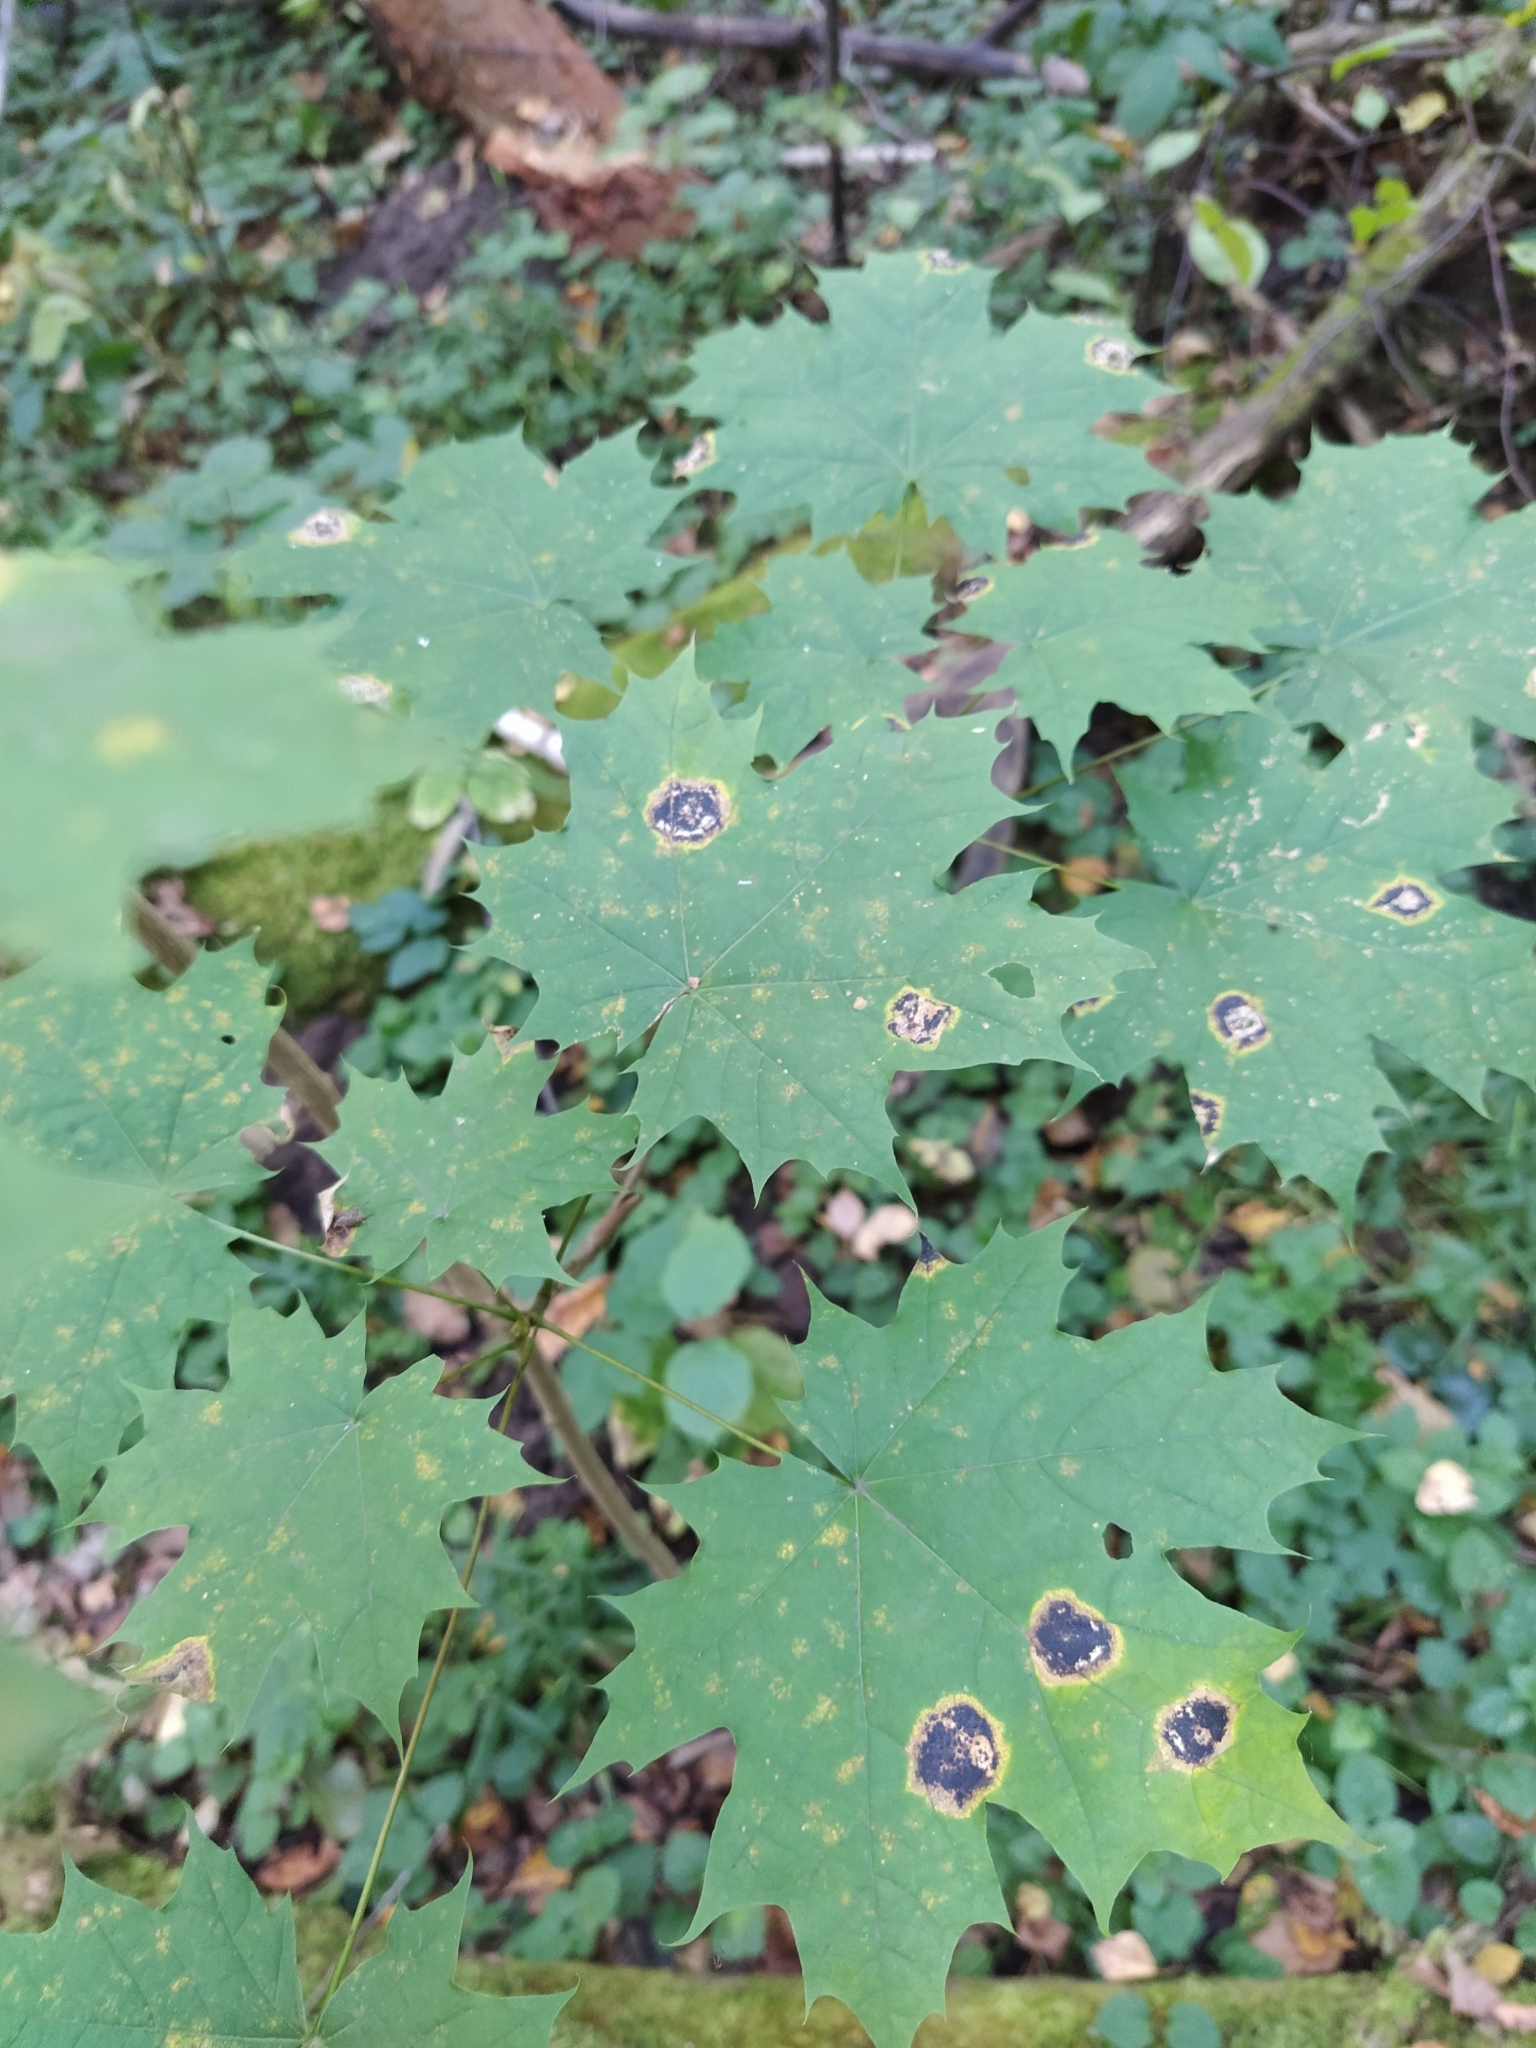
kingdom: Fungi
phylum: Ascomycota
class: Leotiomycetes
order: Rhytismatales
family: Rhytismataceae
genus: Rhytisma
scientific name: Rhytisma acerinum
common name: European tar spot
